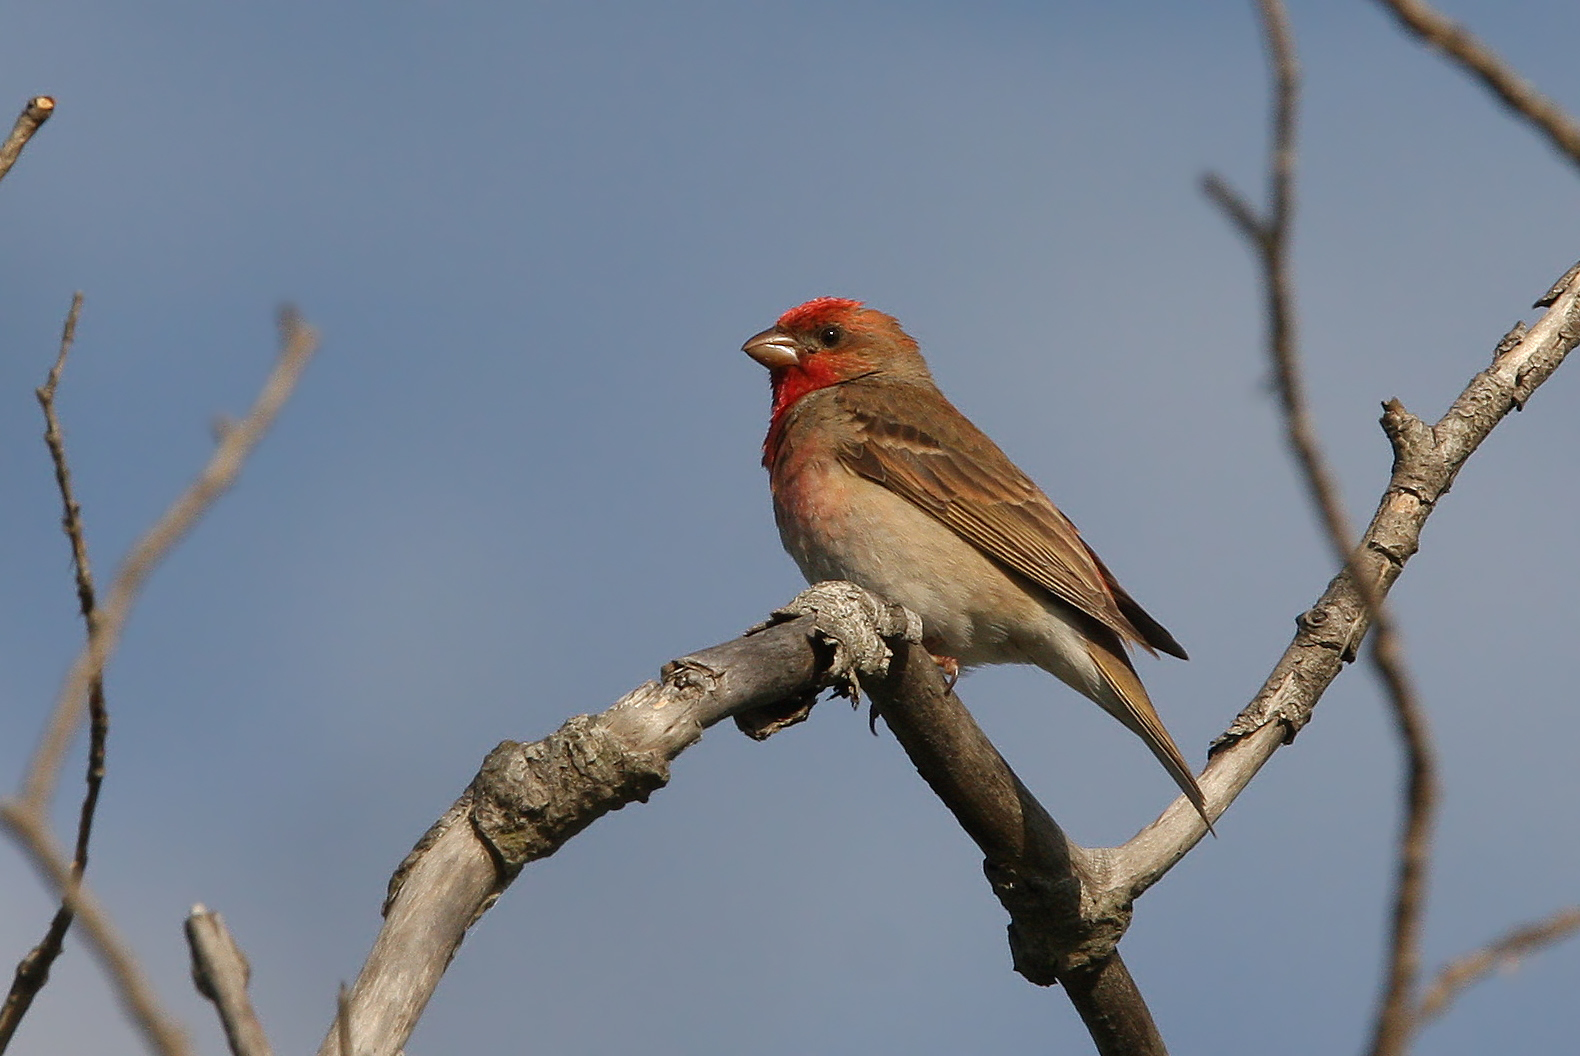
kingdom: Animalia
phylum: Chordata
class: Aves
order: Passeriformes
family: Fringillidae
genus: Carpodacus
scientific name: Carpodacus erythrinus
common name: Common rosefinch
